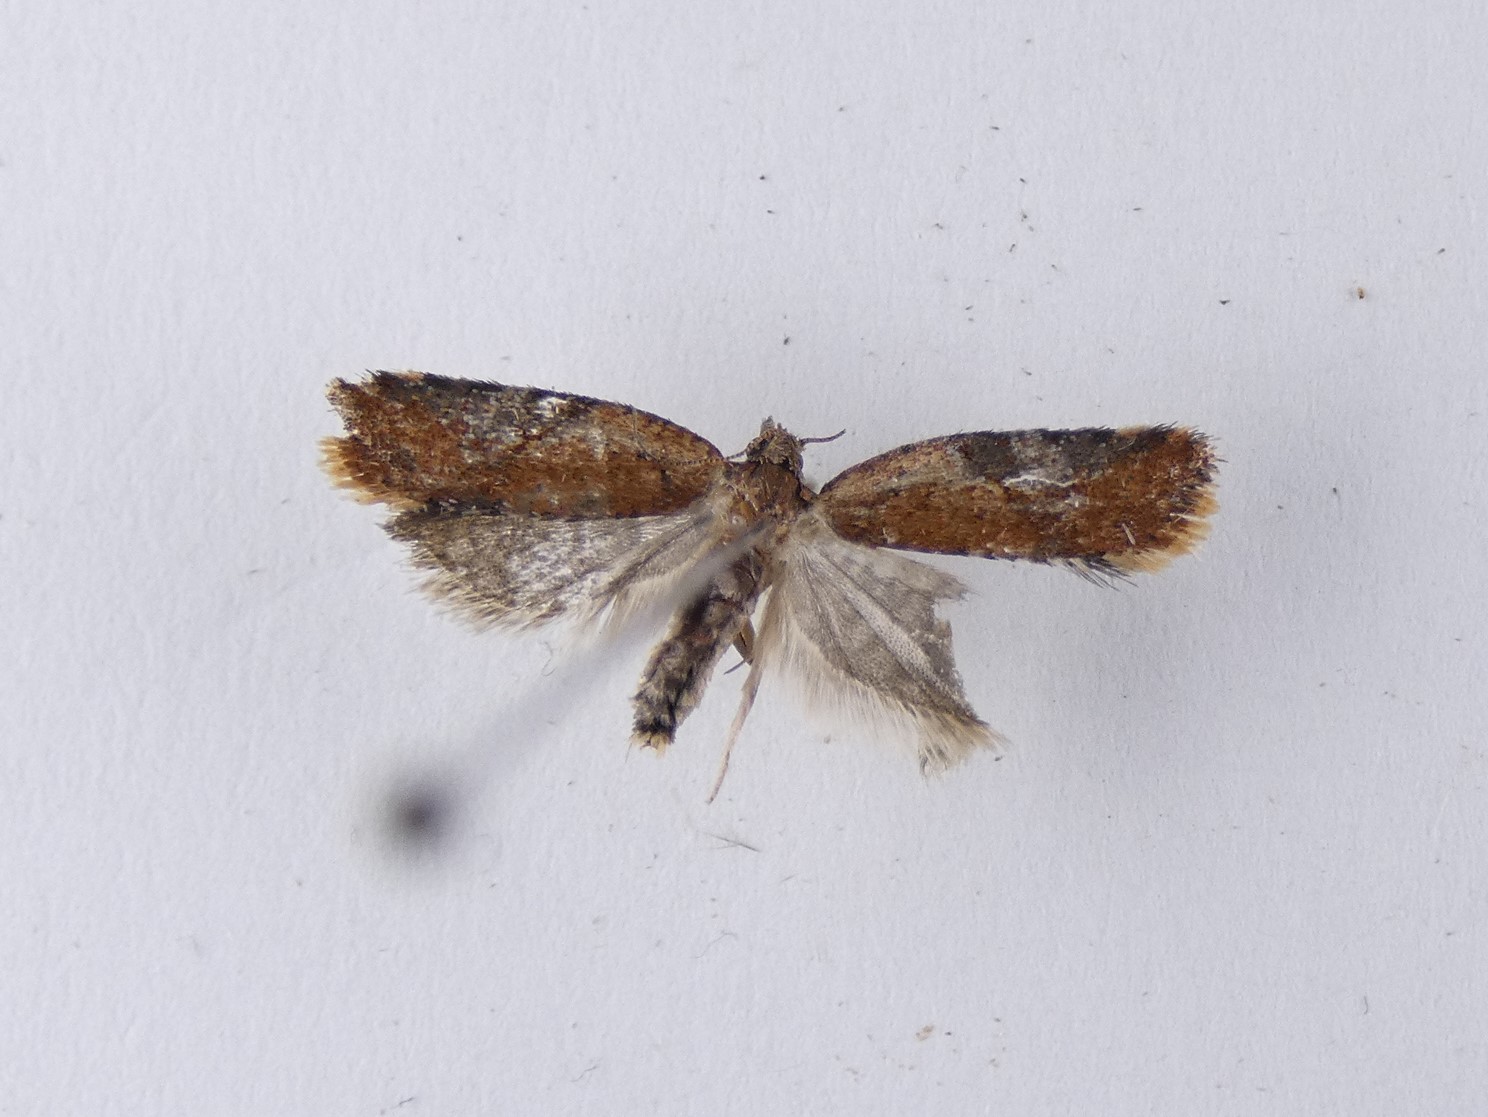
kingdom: Animalia
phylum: Arthropoda
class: Insecta
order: Lepidoptera
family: Tortricidae
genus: Capua
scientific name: Capua semiferana
